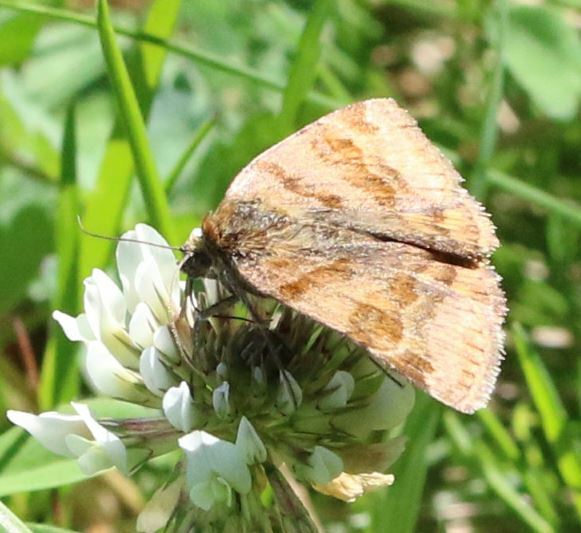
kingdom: Animalia
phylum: Arthropoda
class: Insecta
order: Lepidoptera
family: Erebidae
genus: Euclidia
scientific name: Euclidia glyphica
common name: Burnet companion
